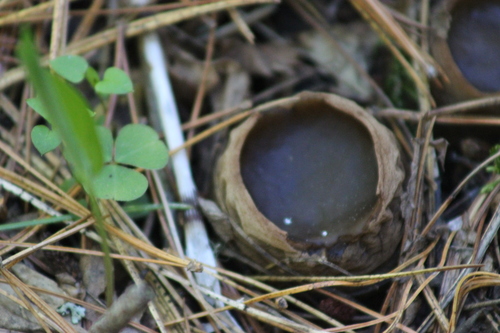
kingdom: Fungi
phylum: Ascomycota
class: Pezizomycetes
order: Pezizales
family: Sarcosomataceae
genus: Sarcosoma
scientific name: Sarcosoma globosum
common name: Charred-pancake cup
